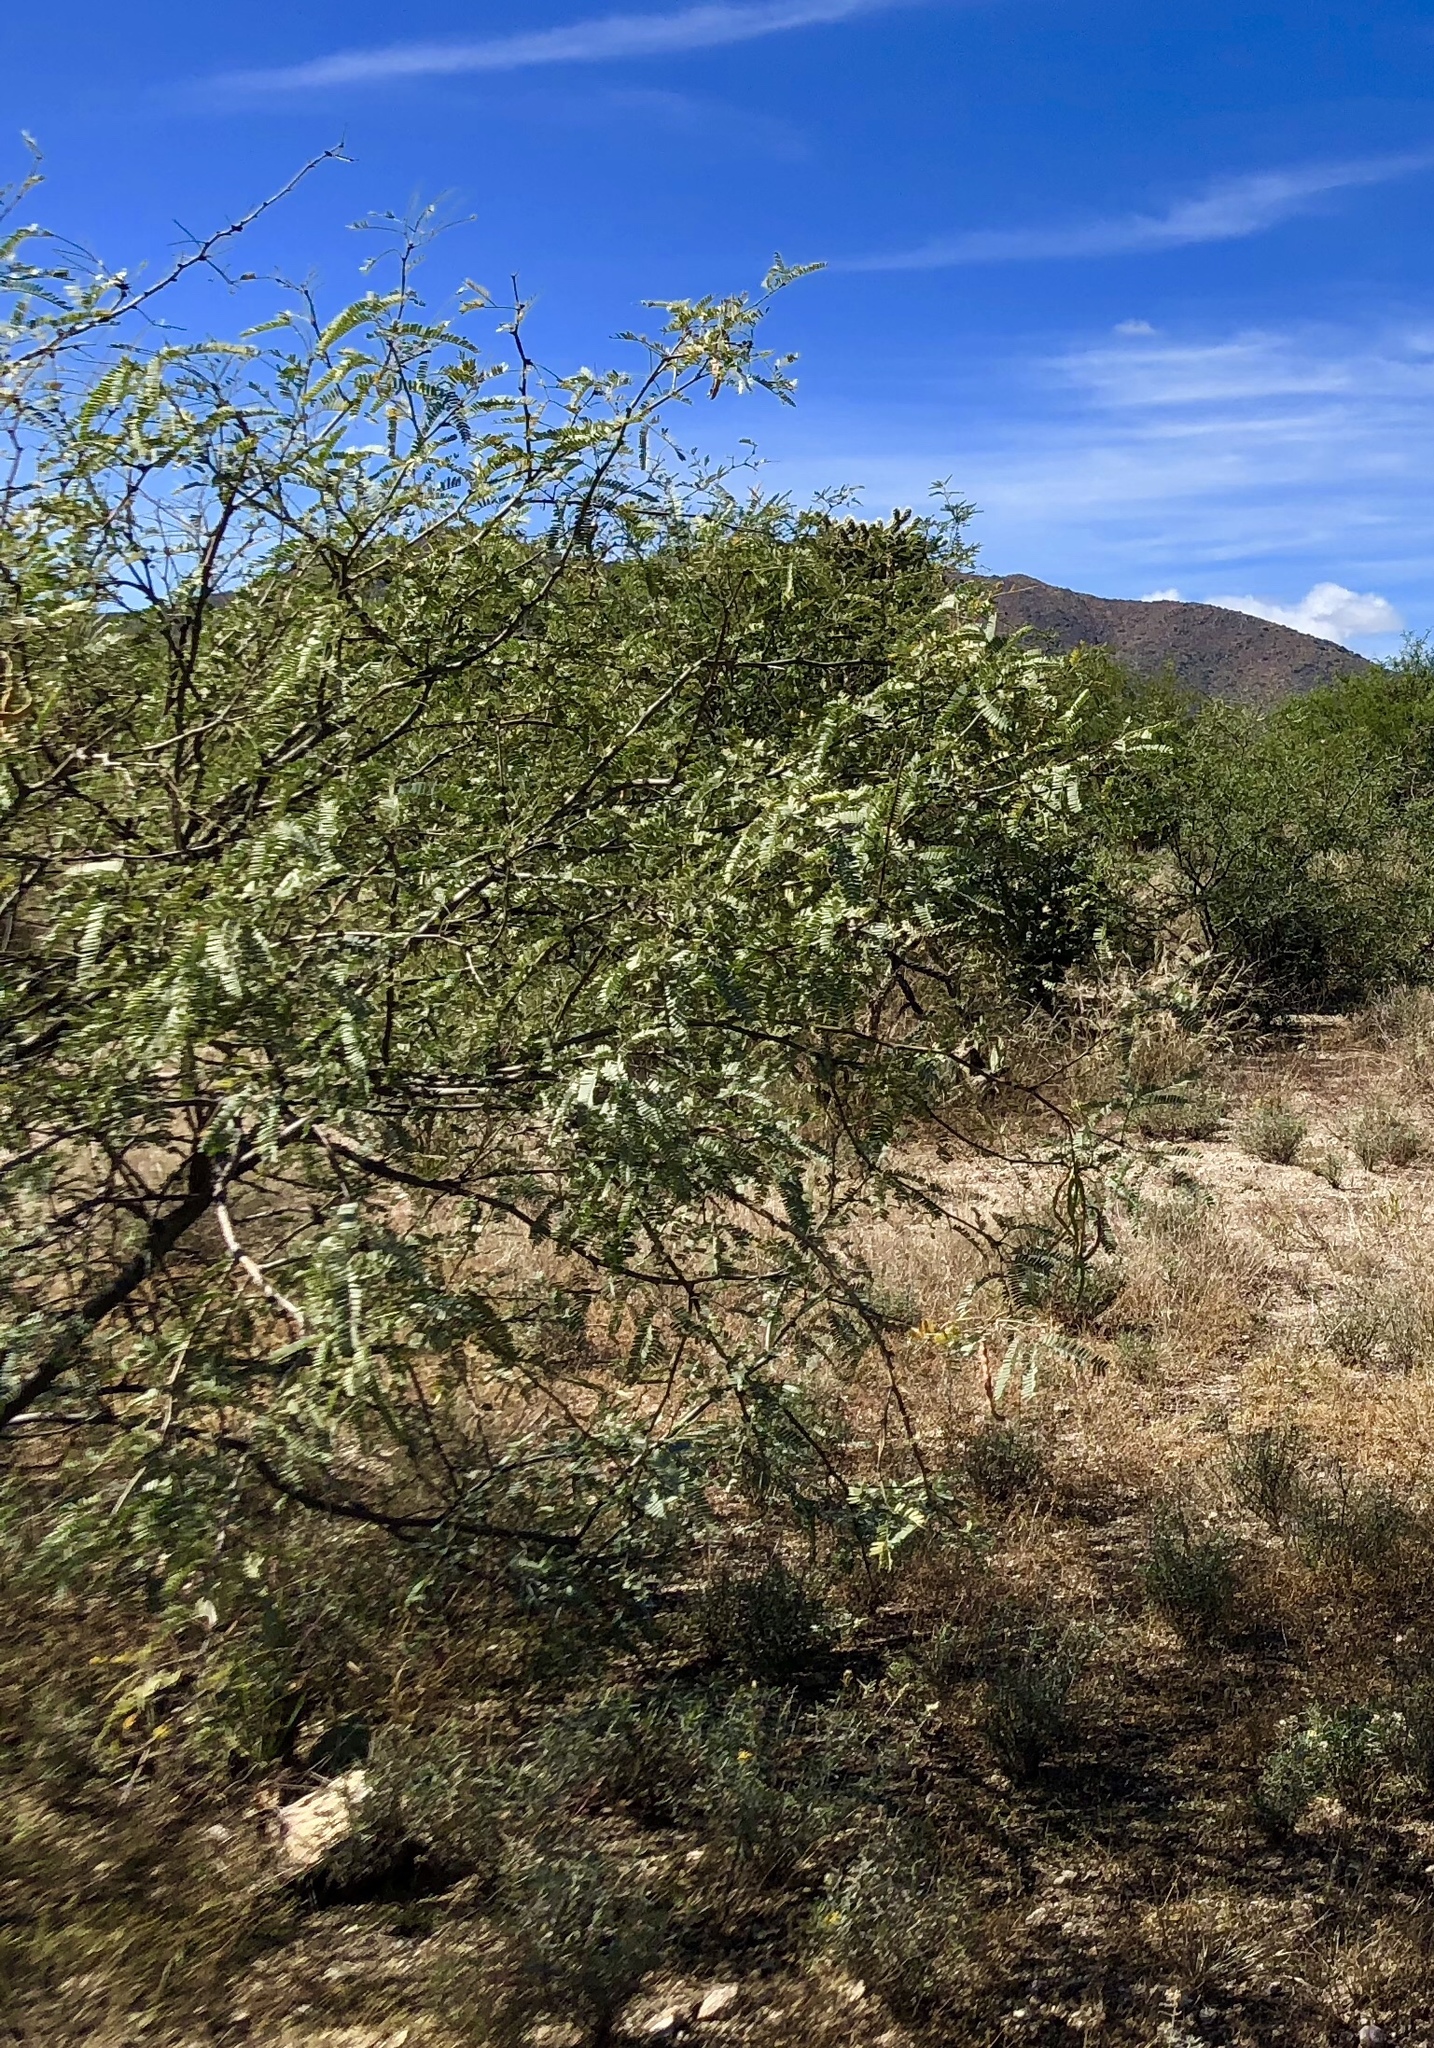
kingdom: Plantae
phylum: Tracheophyta
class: Magnoliopsida
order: Fabales
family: Fabaceae
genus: Prosopis
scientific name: Prosopis velutina
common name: Velvet mesquite
